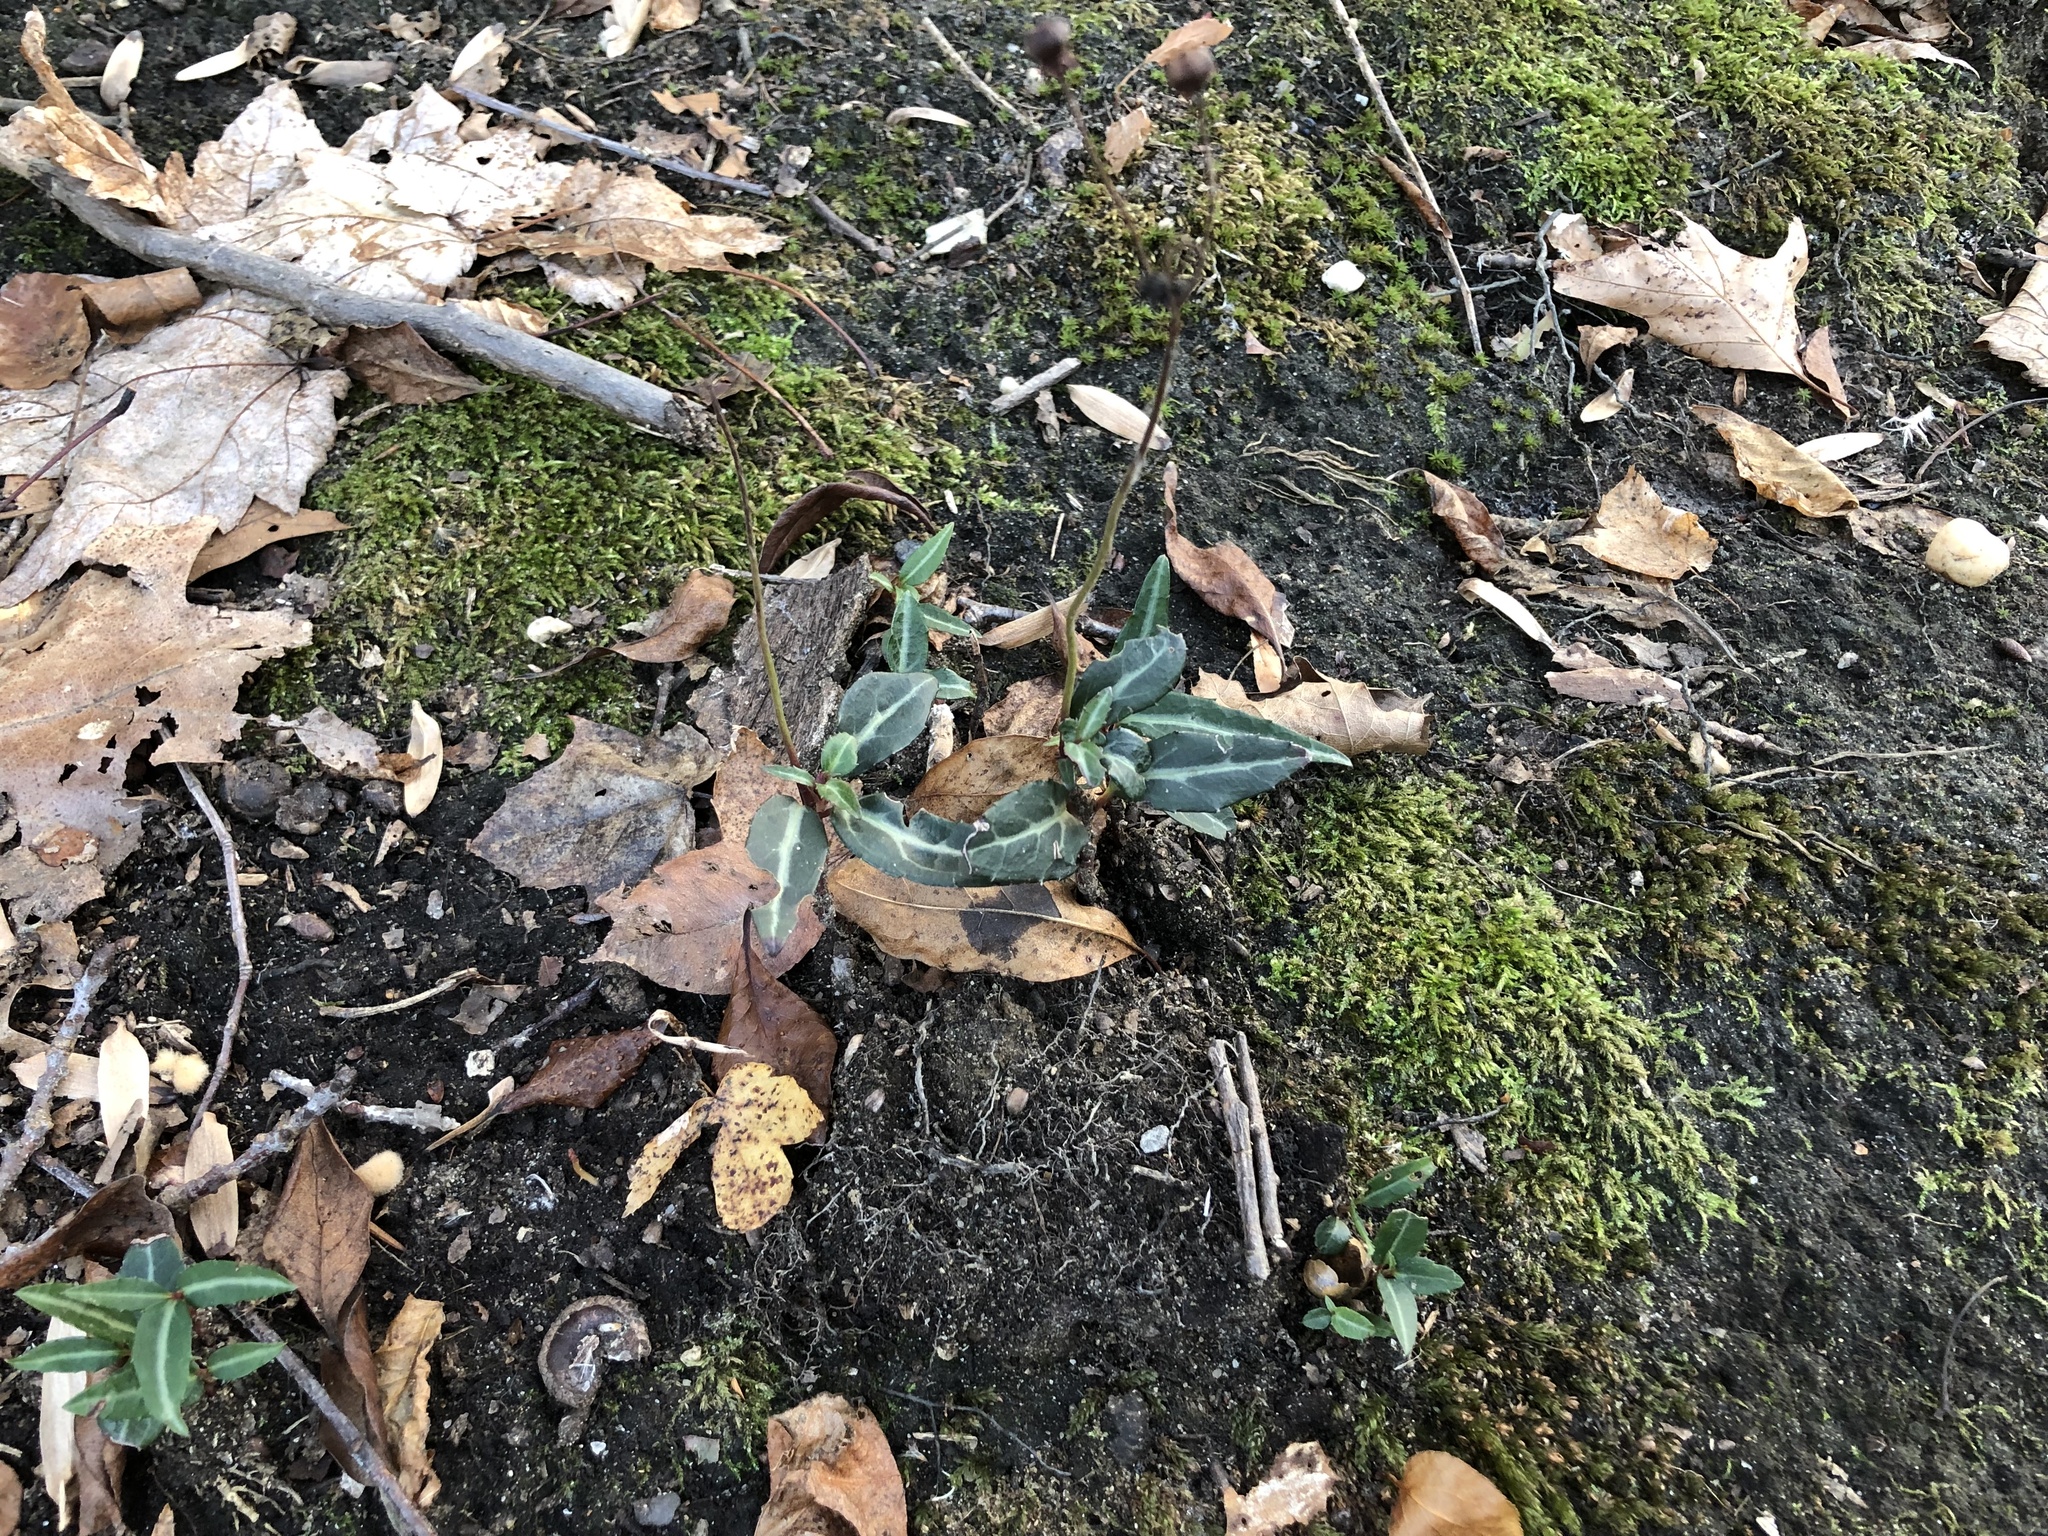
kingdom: Plantae
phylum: Tracheophyta
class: Magnoliopsida
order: Ericales
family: Ericaceae
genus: Chimaphila
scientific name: Chimaphila maculata
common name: Spotted pipsissewa
